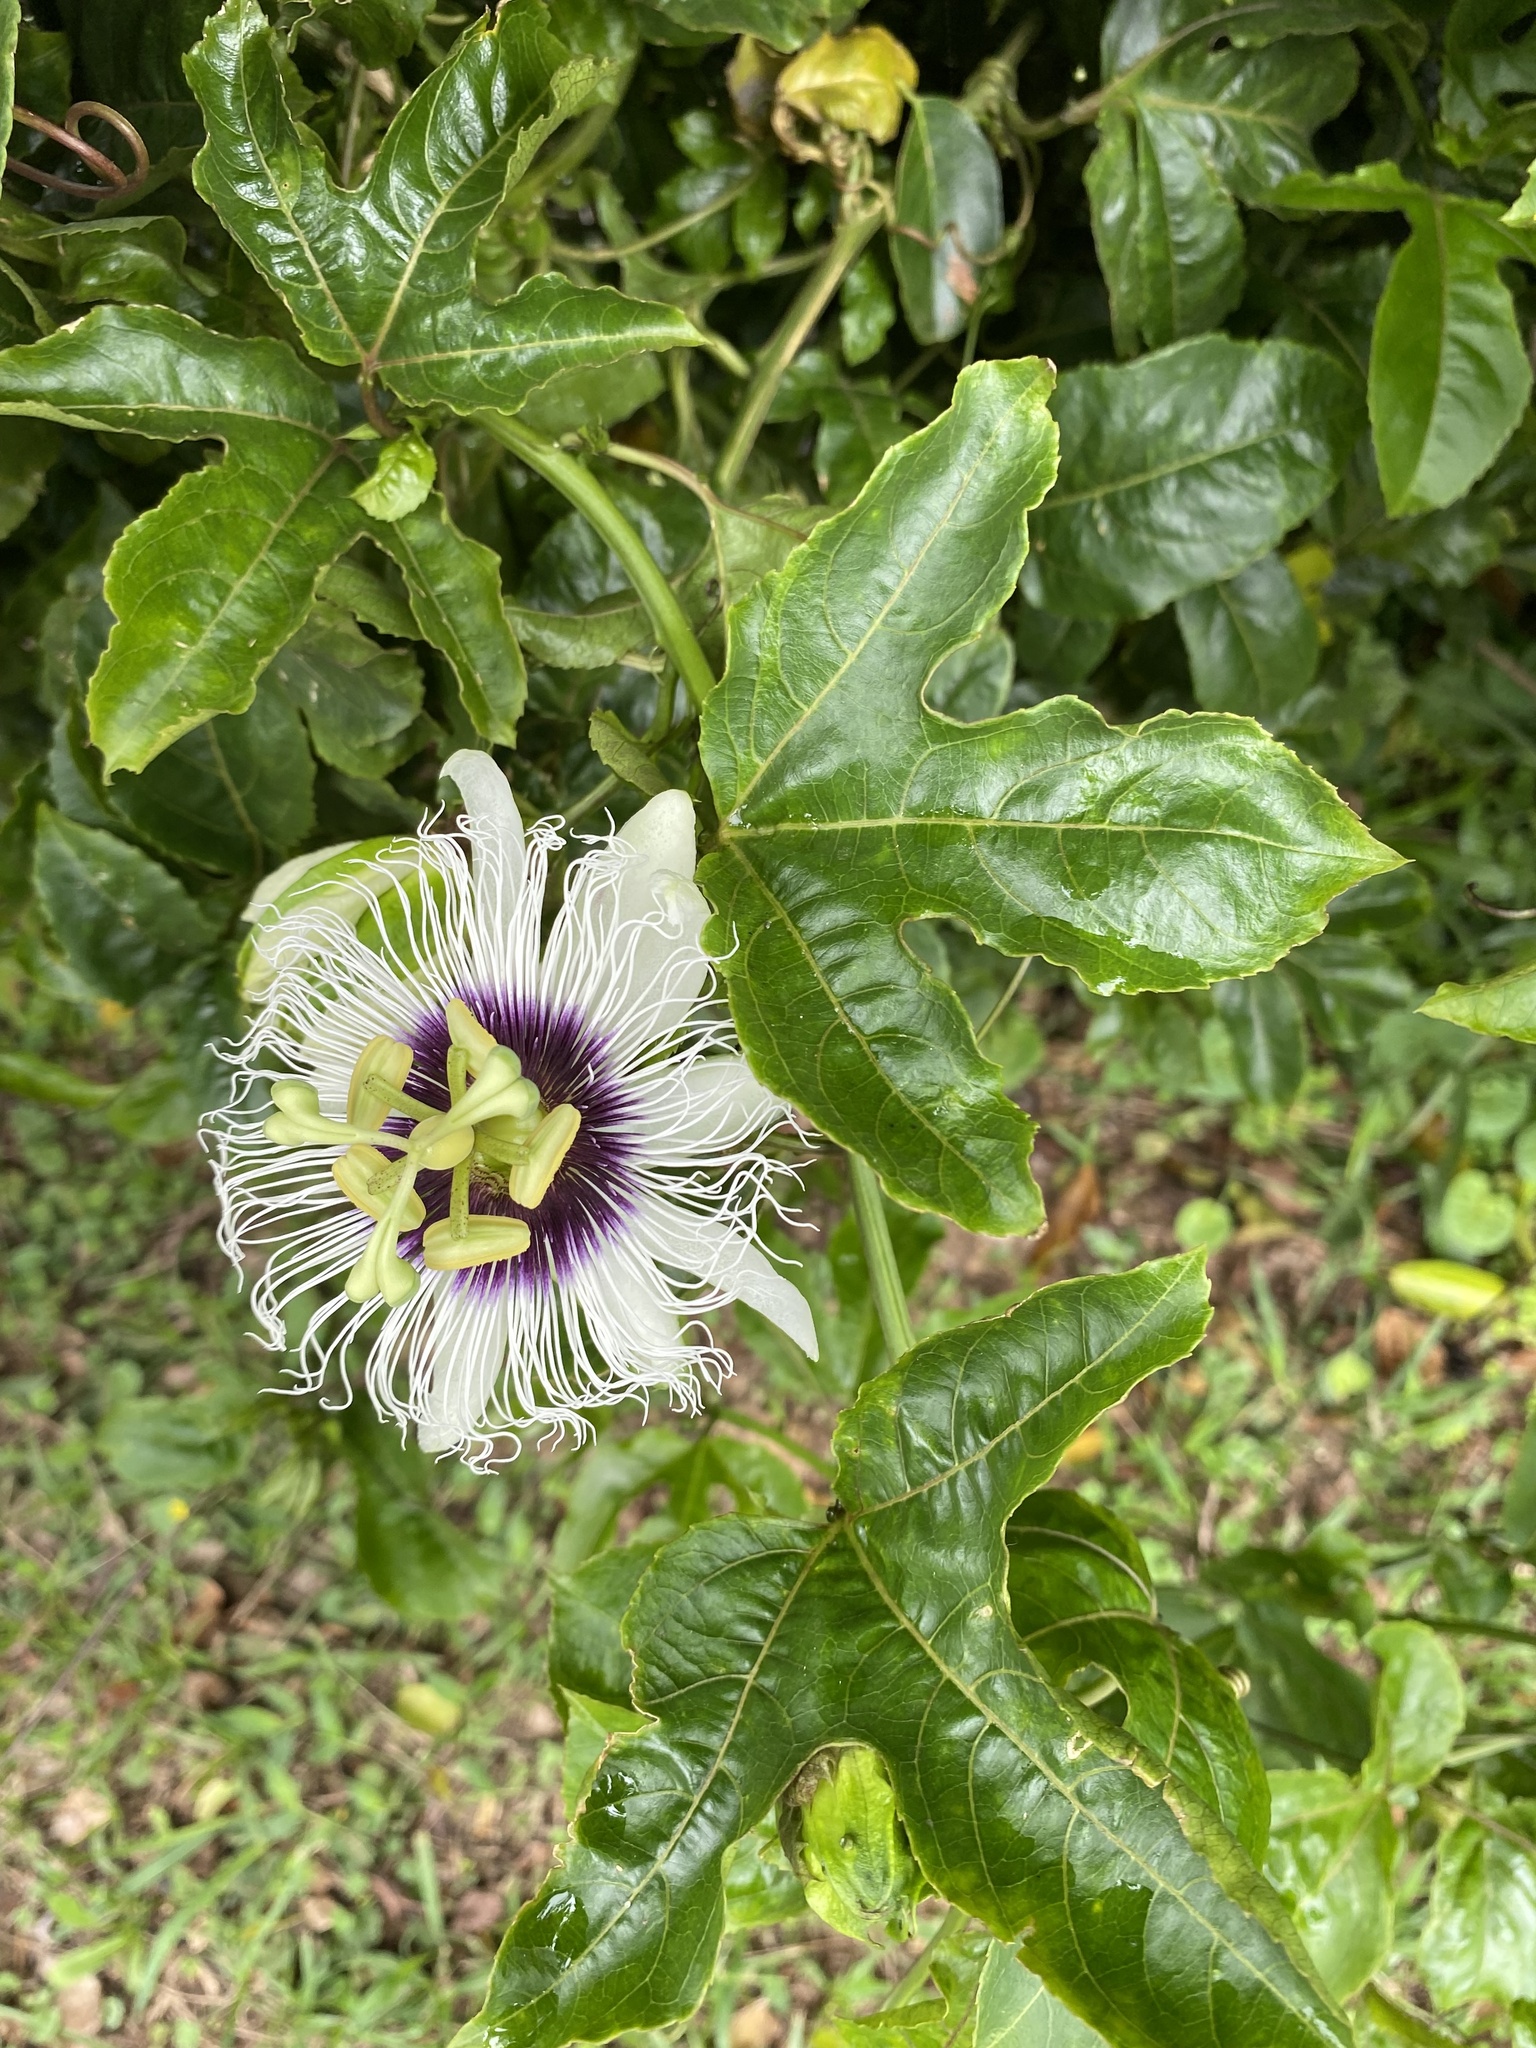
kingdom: Plantae
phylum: Tracheophyta
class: Magnoliopsida
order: Malpighiales
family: Passifloraceae
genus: Passiflora
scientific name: Passiflora edulis
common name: Purple granadilla
